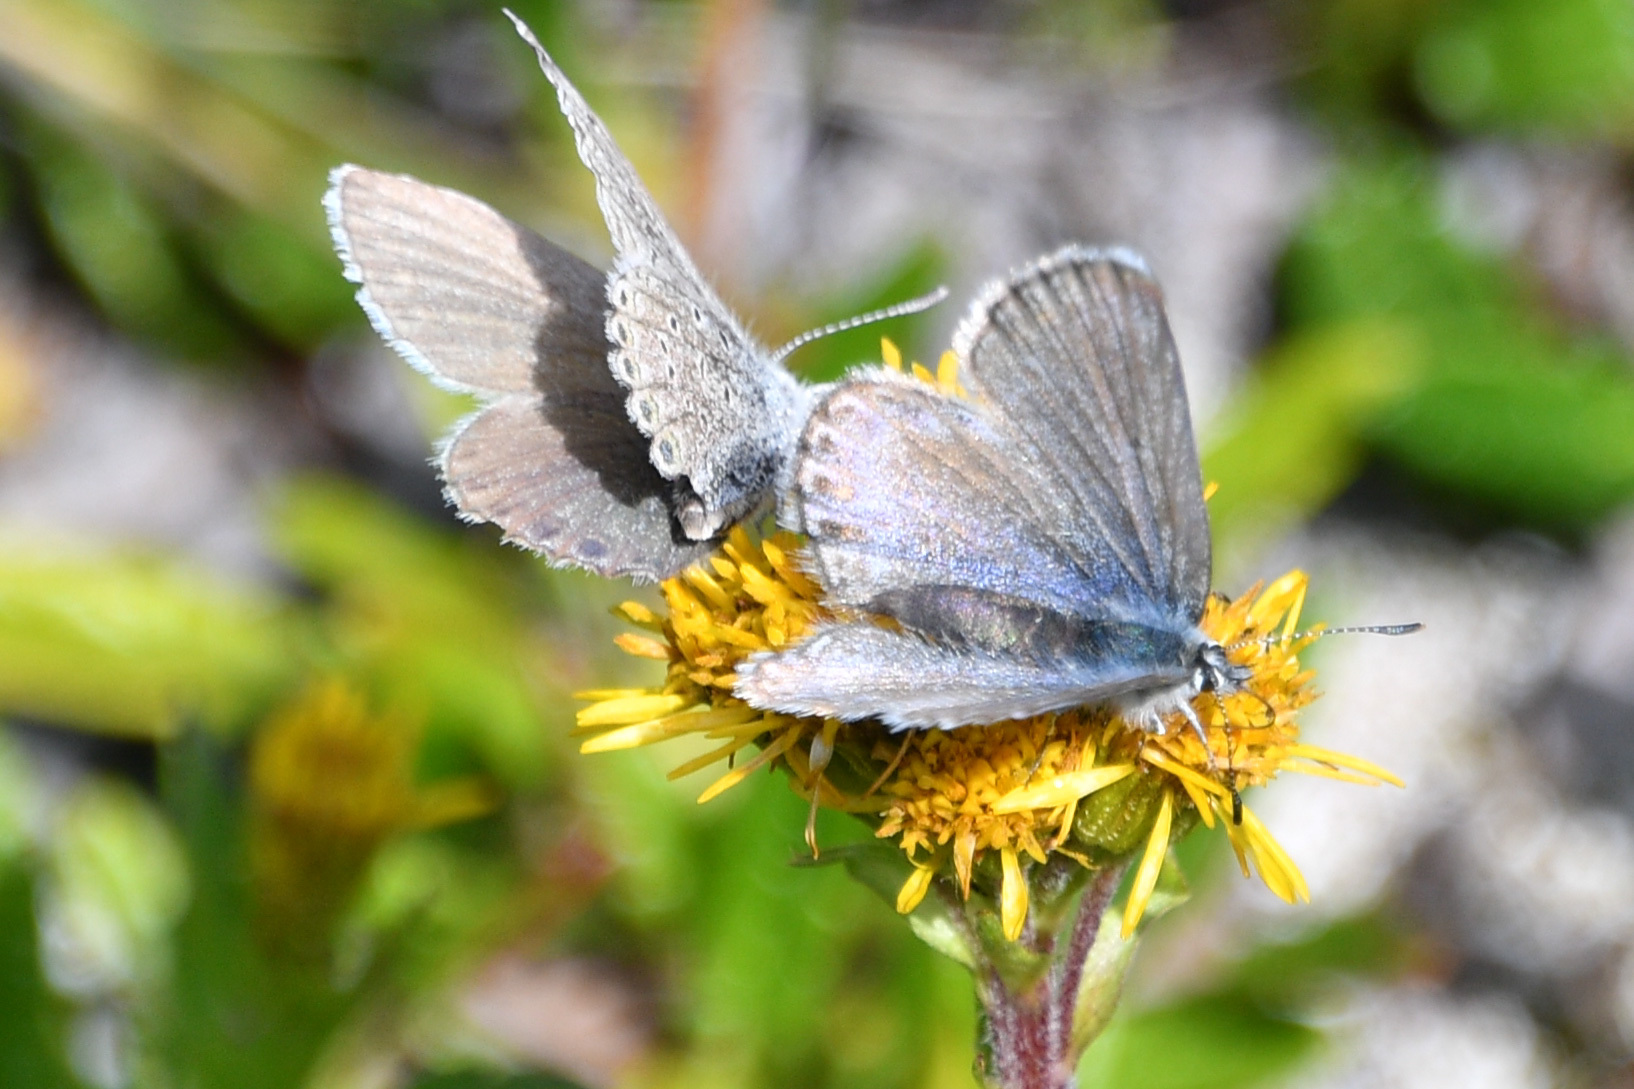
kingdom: Animalia
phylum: Arthropoda
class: Insecta
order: Lepidoptera
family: Lycaenidae
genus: Lycaeides
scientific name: Lycaeides idas
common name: Northern blue
